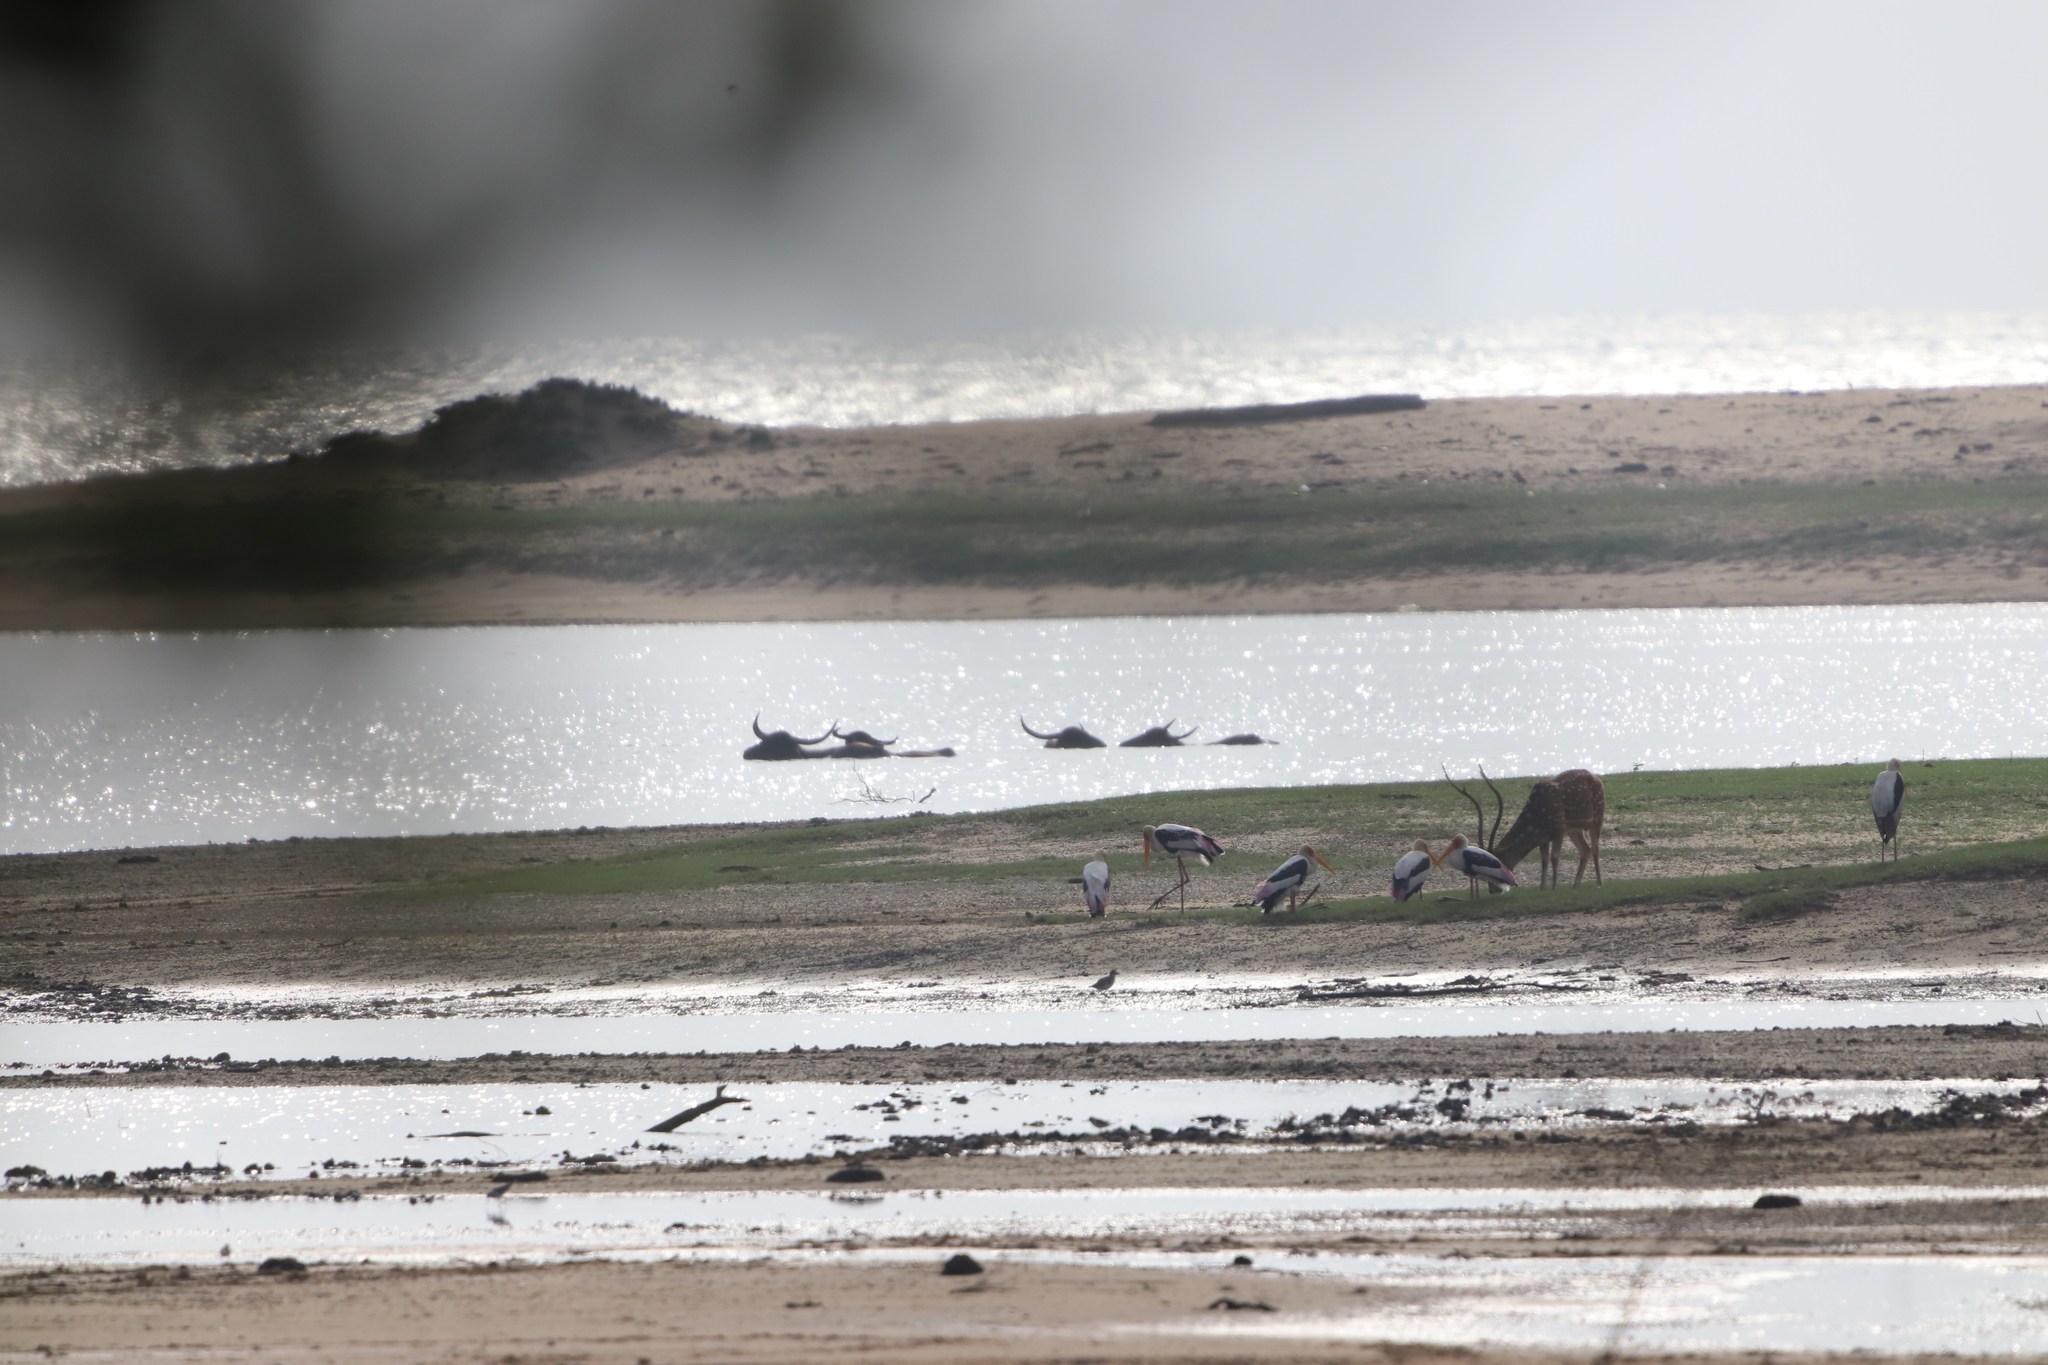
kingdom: Animalia
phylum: Chordata
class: Aves
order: Ciconiiformes
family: Ciconiidae
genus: Mycteria
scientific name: Mycteria leucocephala
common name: Painted stork
